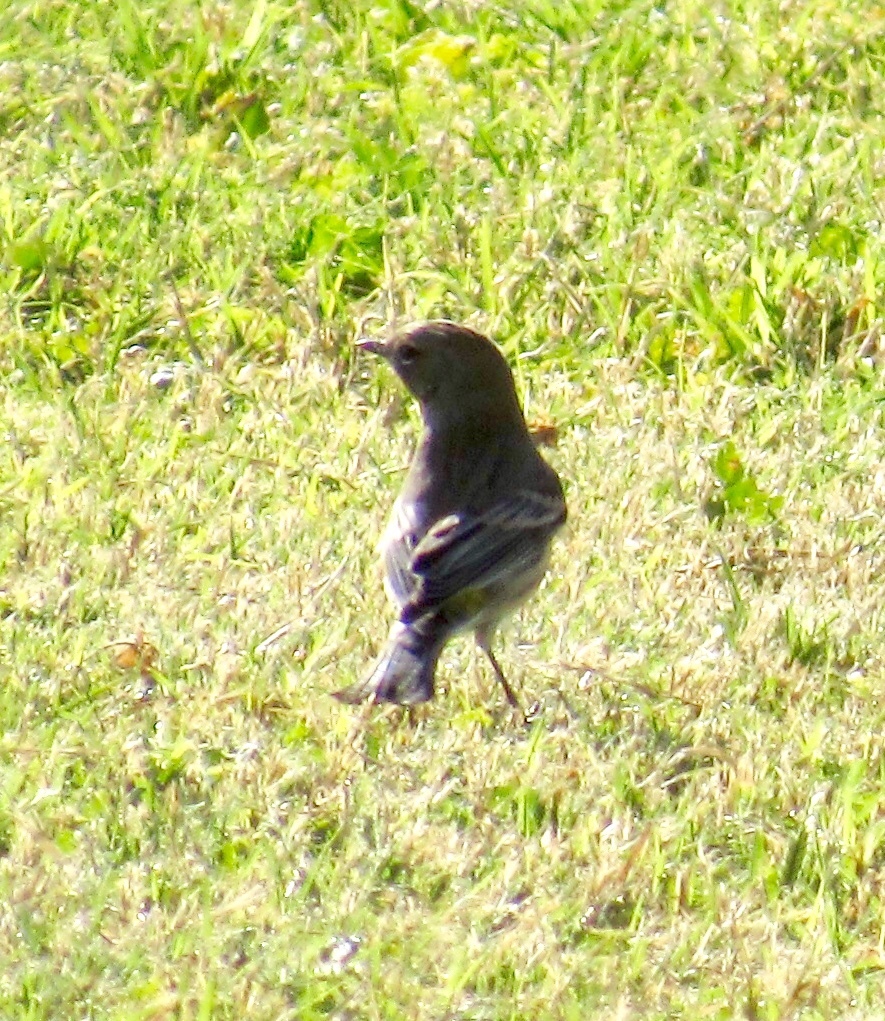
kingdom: Animalia
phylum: Chordata
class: Aves
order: Passeriformes
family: Parulidae
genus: Setophaga
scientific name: Setophaga coronata
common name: Myrtle warbler
